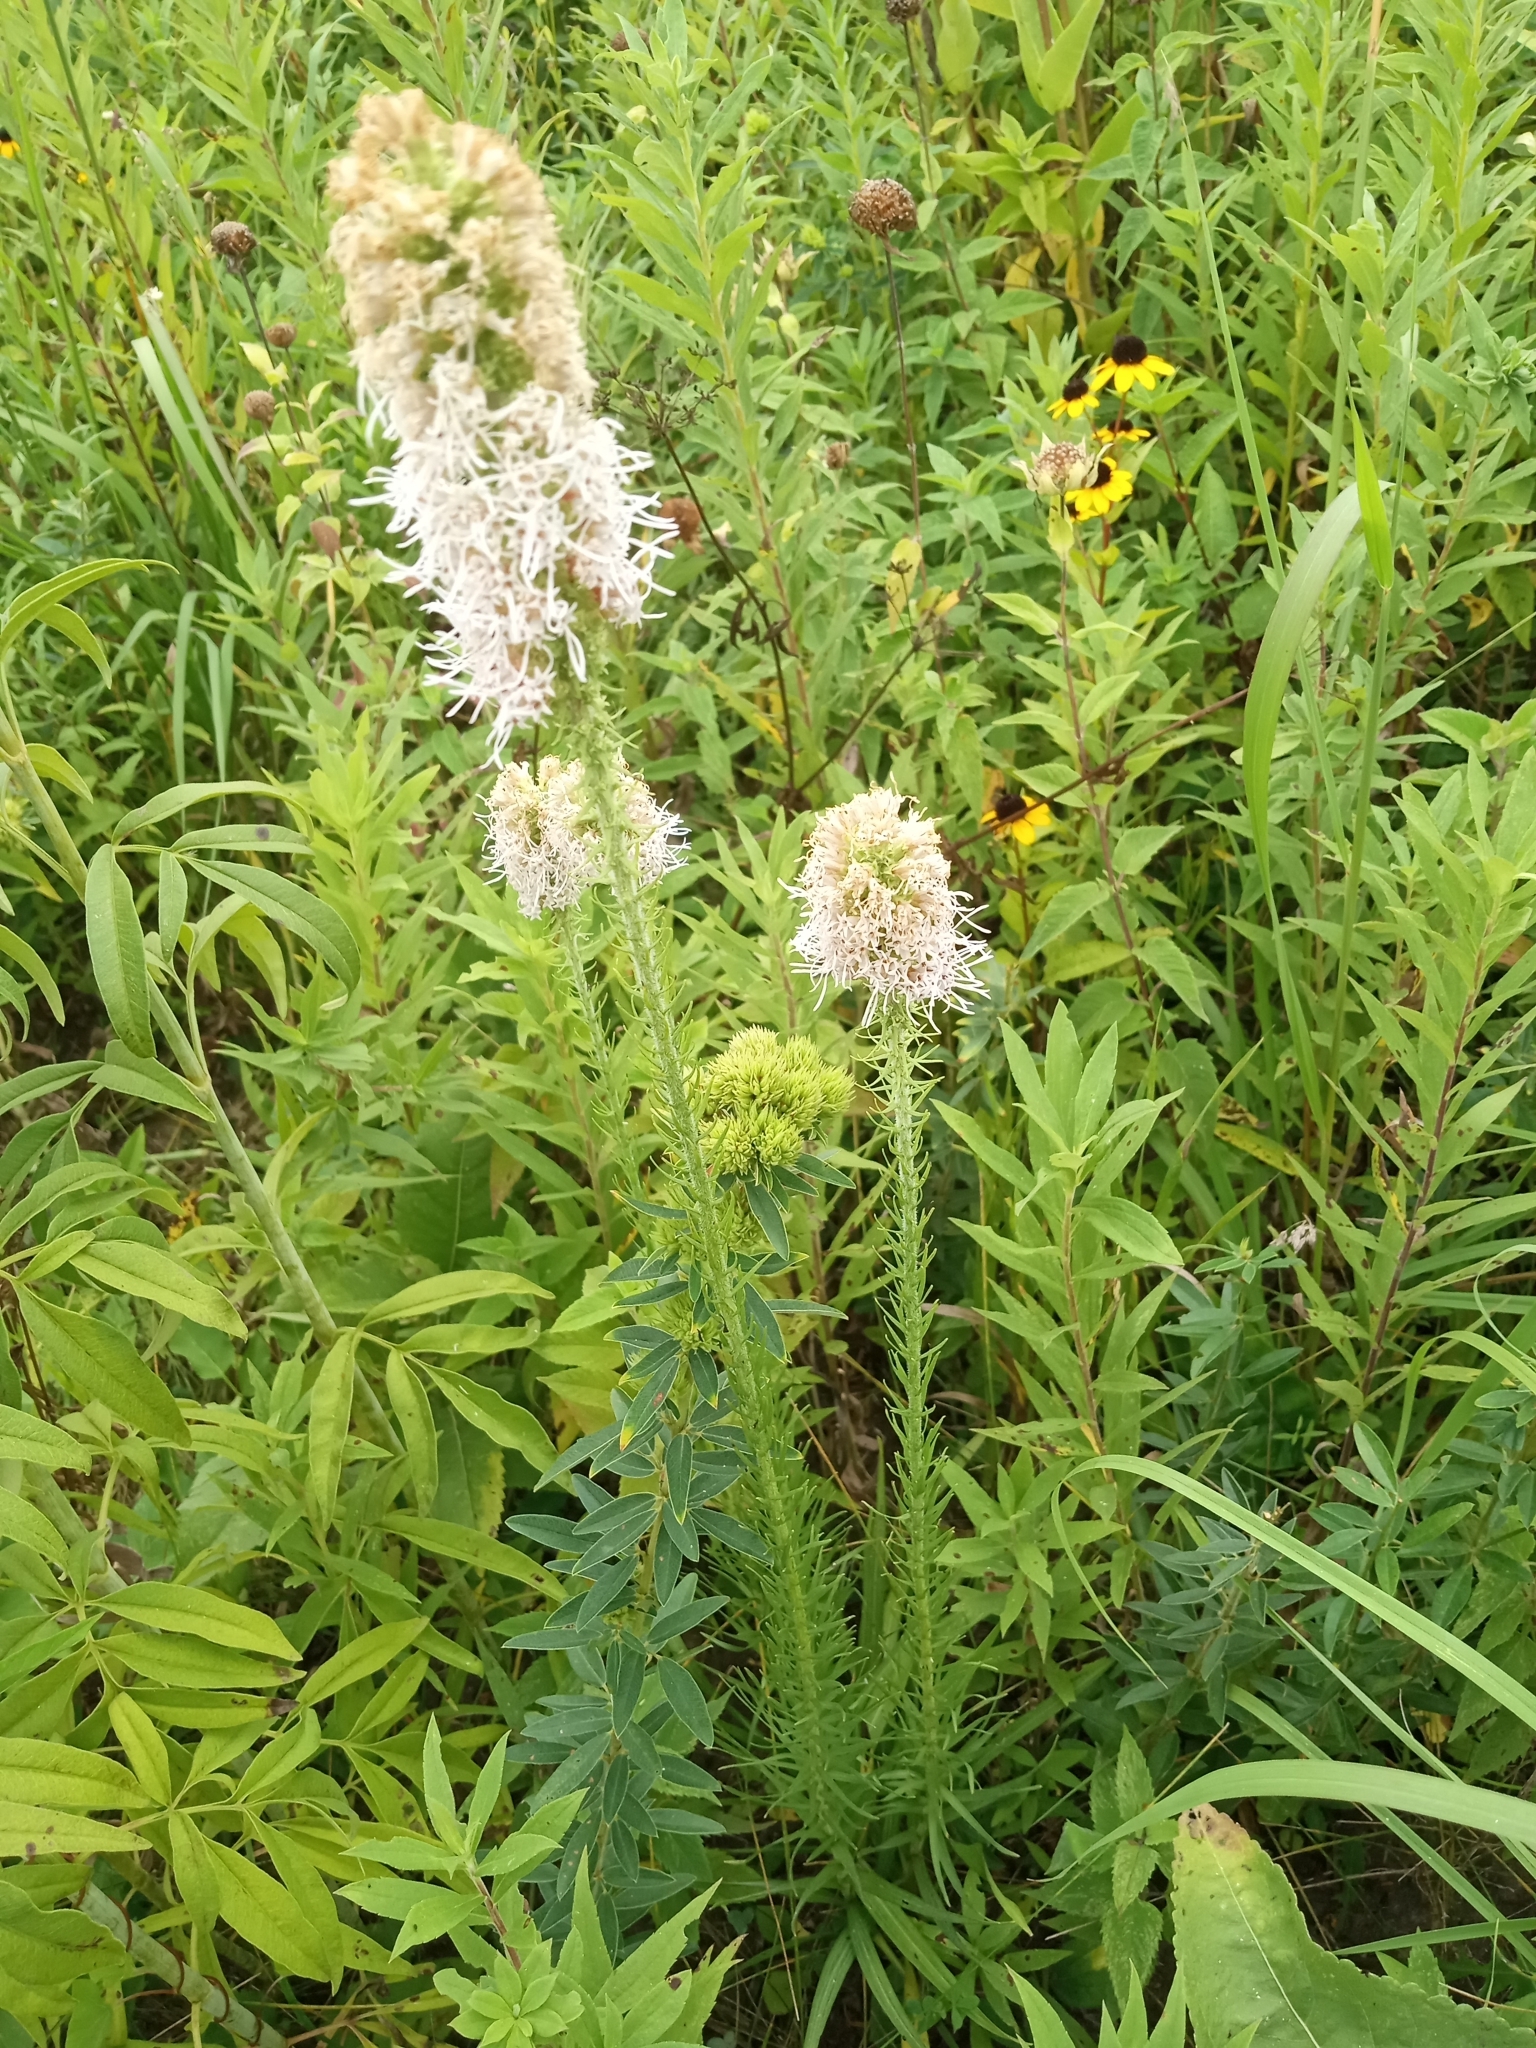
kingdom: Plantae
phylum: Tracheophyta
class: Magnoliopsida
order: Asterales
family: Asteraceae
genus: Liatris
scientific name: Liatris pycnostachya
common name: Cattail gayfeather
